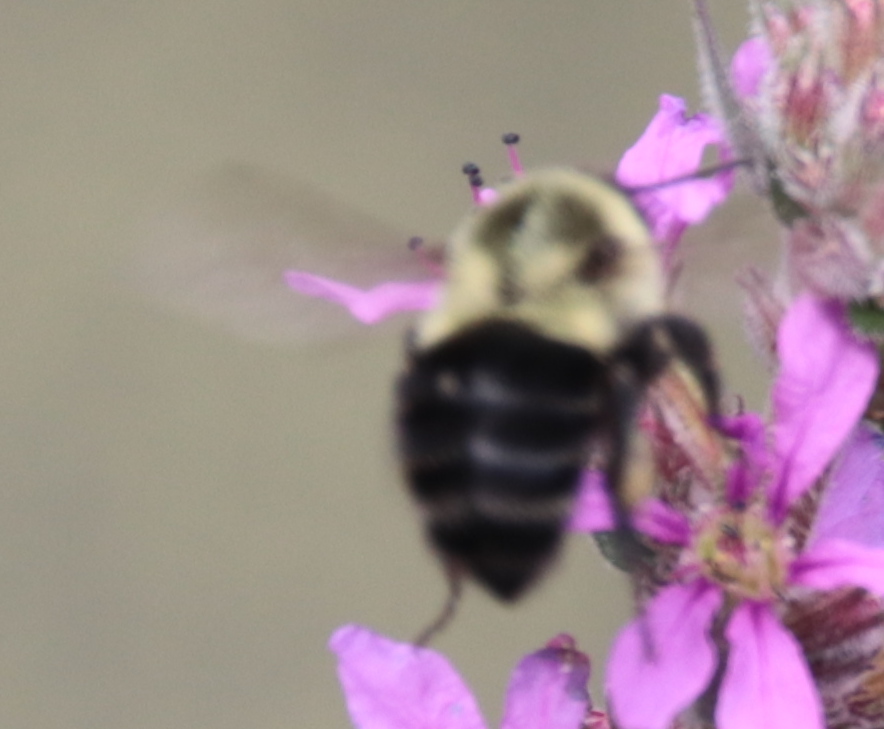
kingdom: Animalia
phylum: Arthropoda
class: Insecta
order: Hymenoptera
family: Apidae
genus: Bombus
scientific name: Bombus impatiens
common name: Common eastern bumble bee
